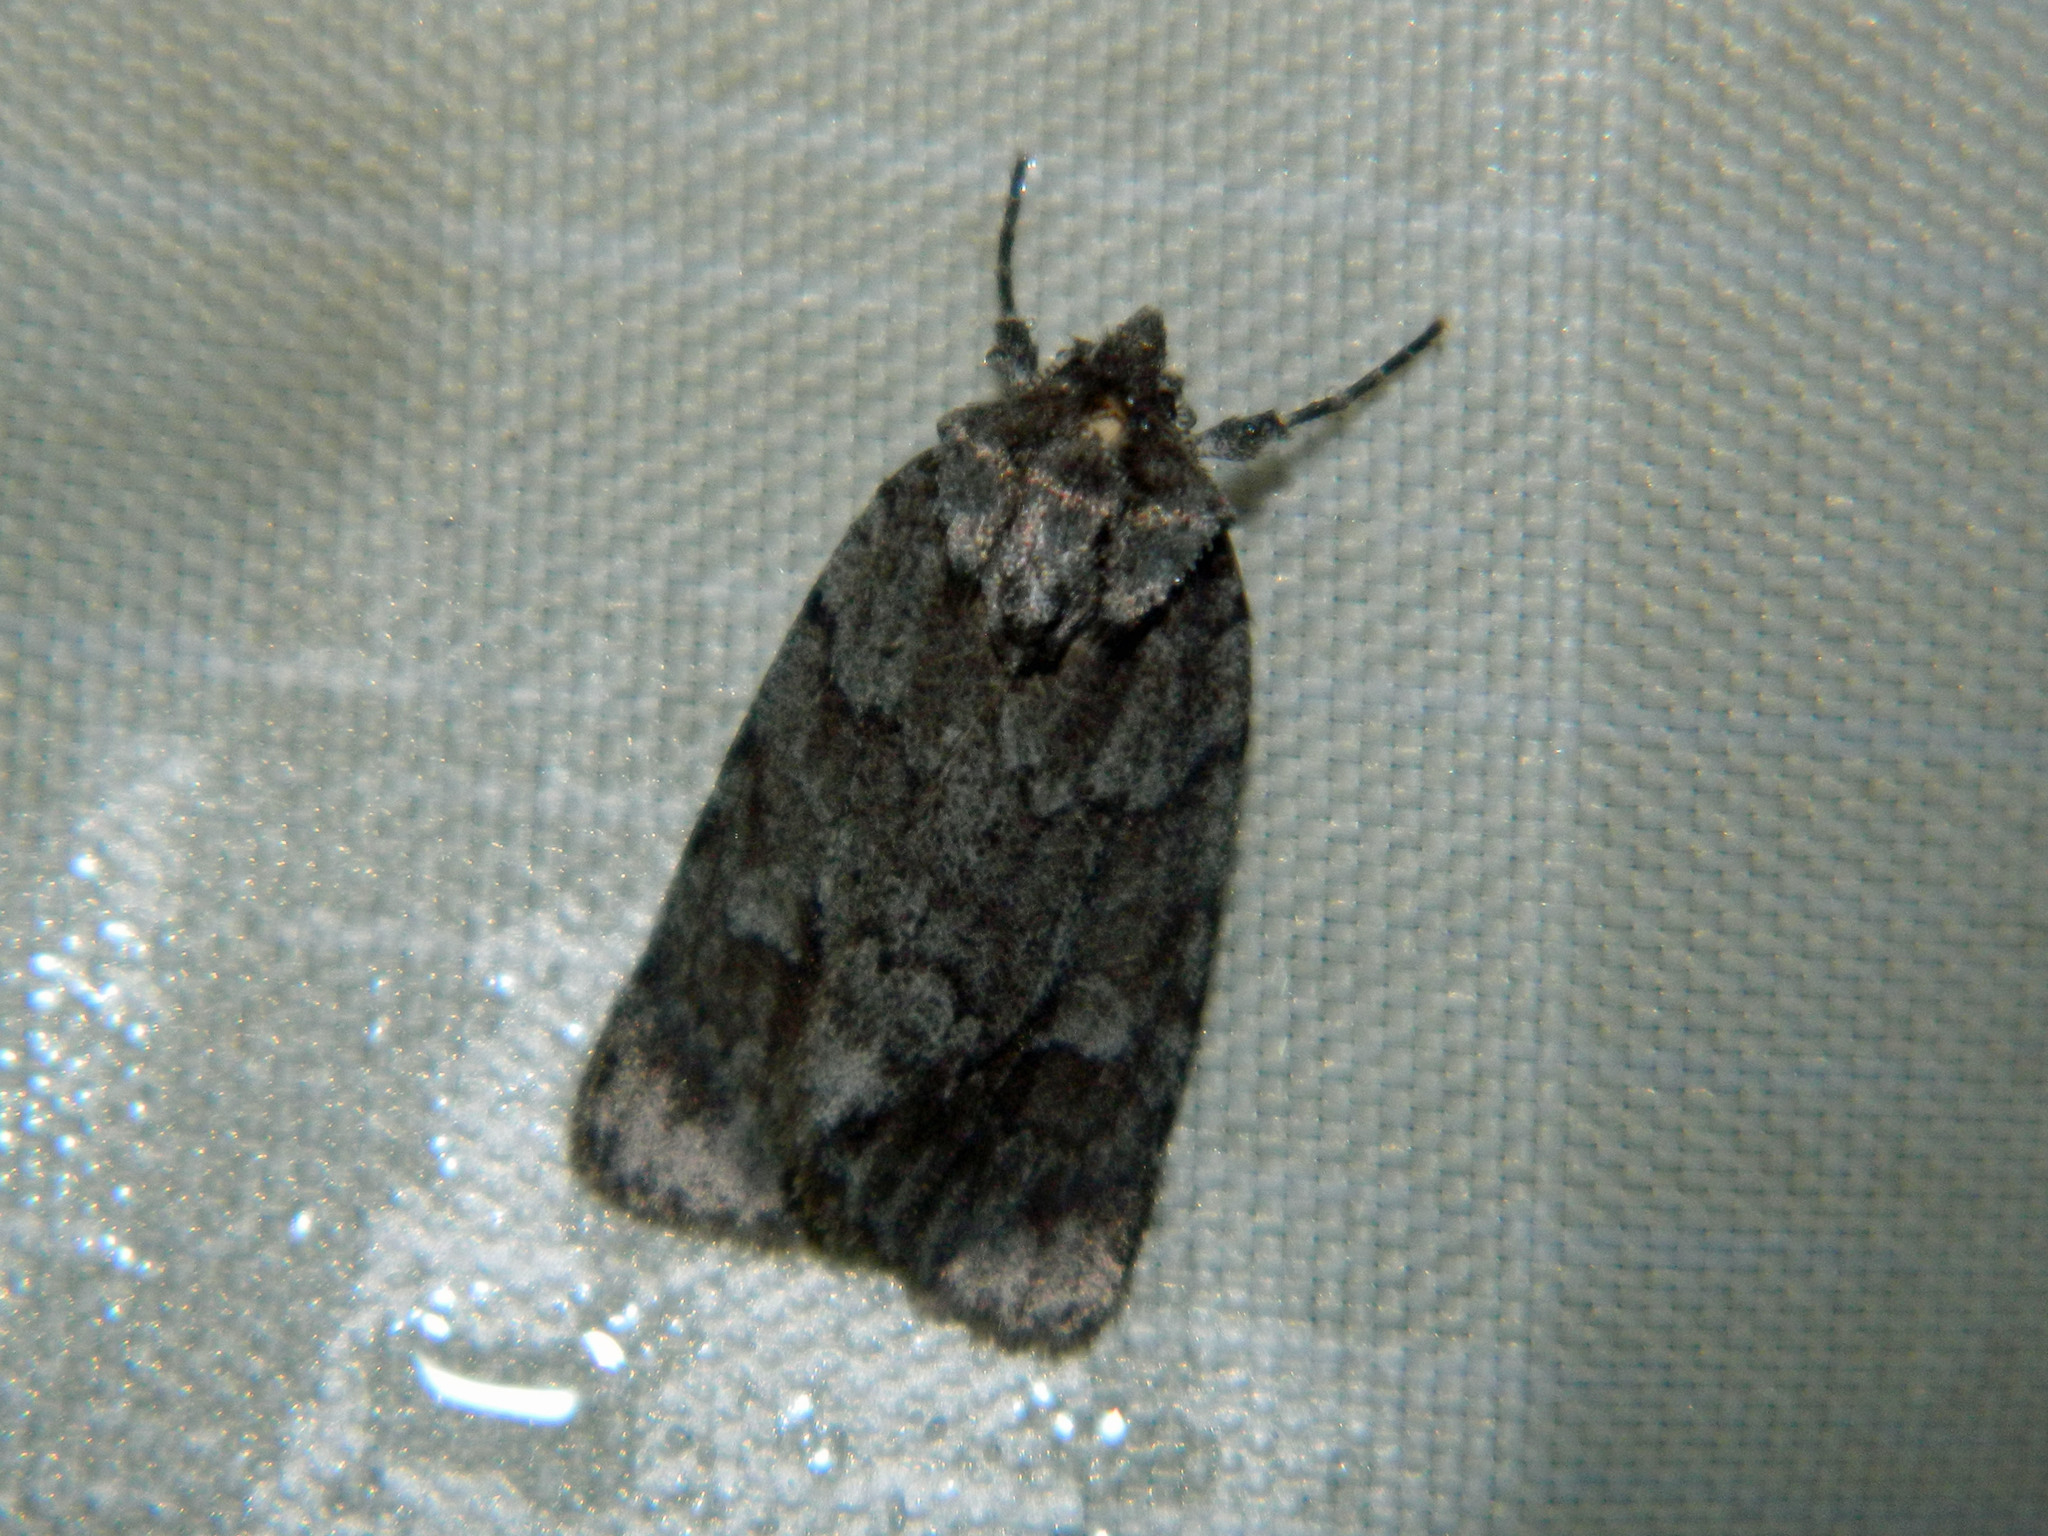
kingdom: Animalia
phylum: Arthropoda
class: Insecta
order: Lepidoptera
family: Noctuidae
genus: Sympistis
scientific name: Sympistis dentata
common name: Blueberry sallow
